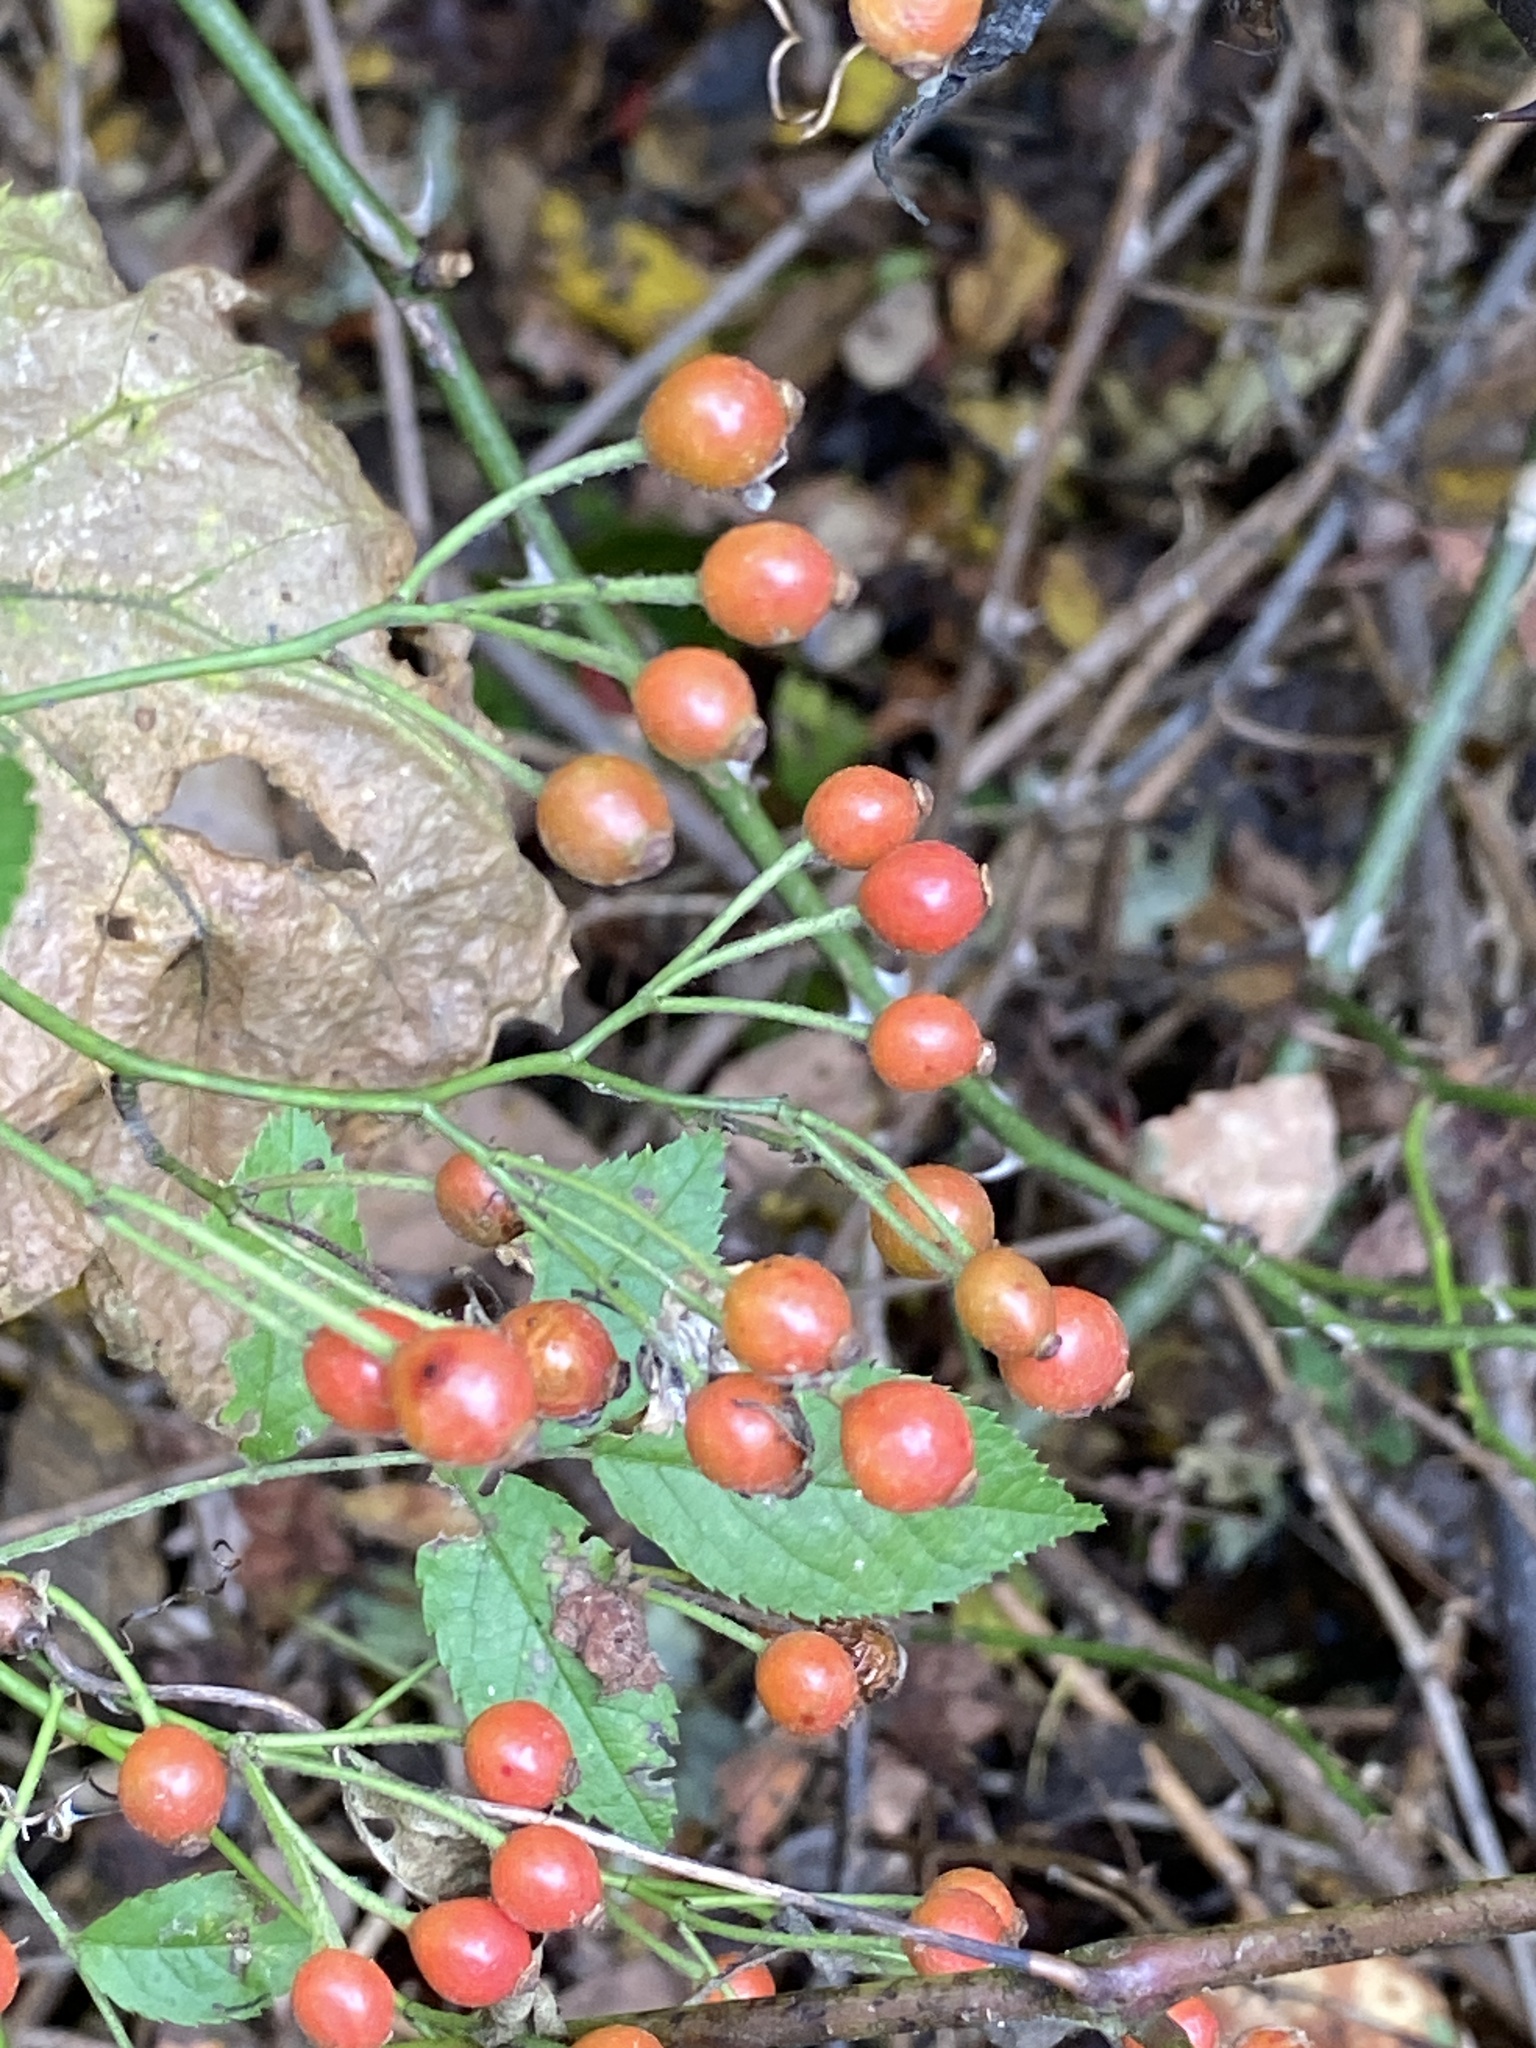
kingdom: Plantae
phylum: Tracheophyta
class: Magnoliopsida
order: Rosales
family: Rosaceae
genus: Rosa
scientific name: Rosa multiflora
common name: Multiflora rose
